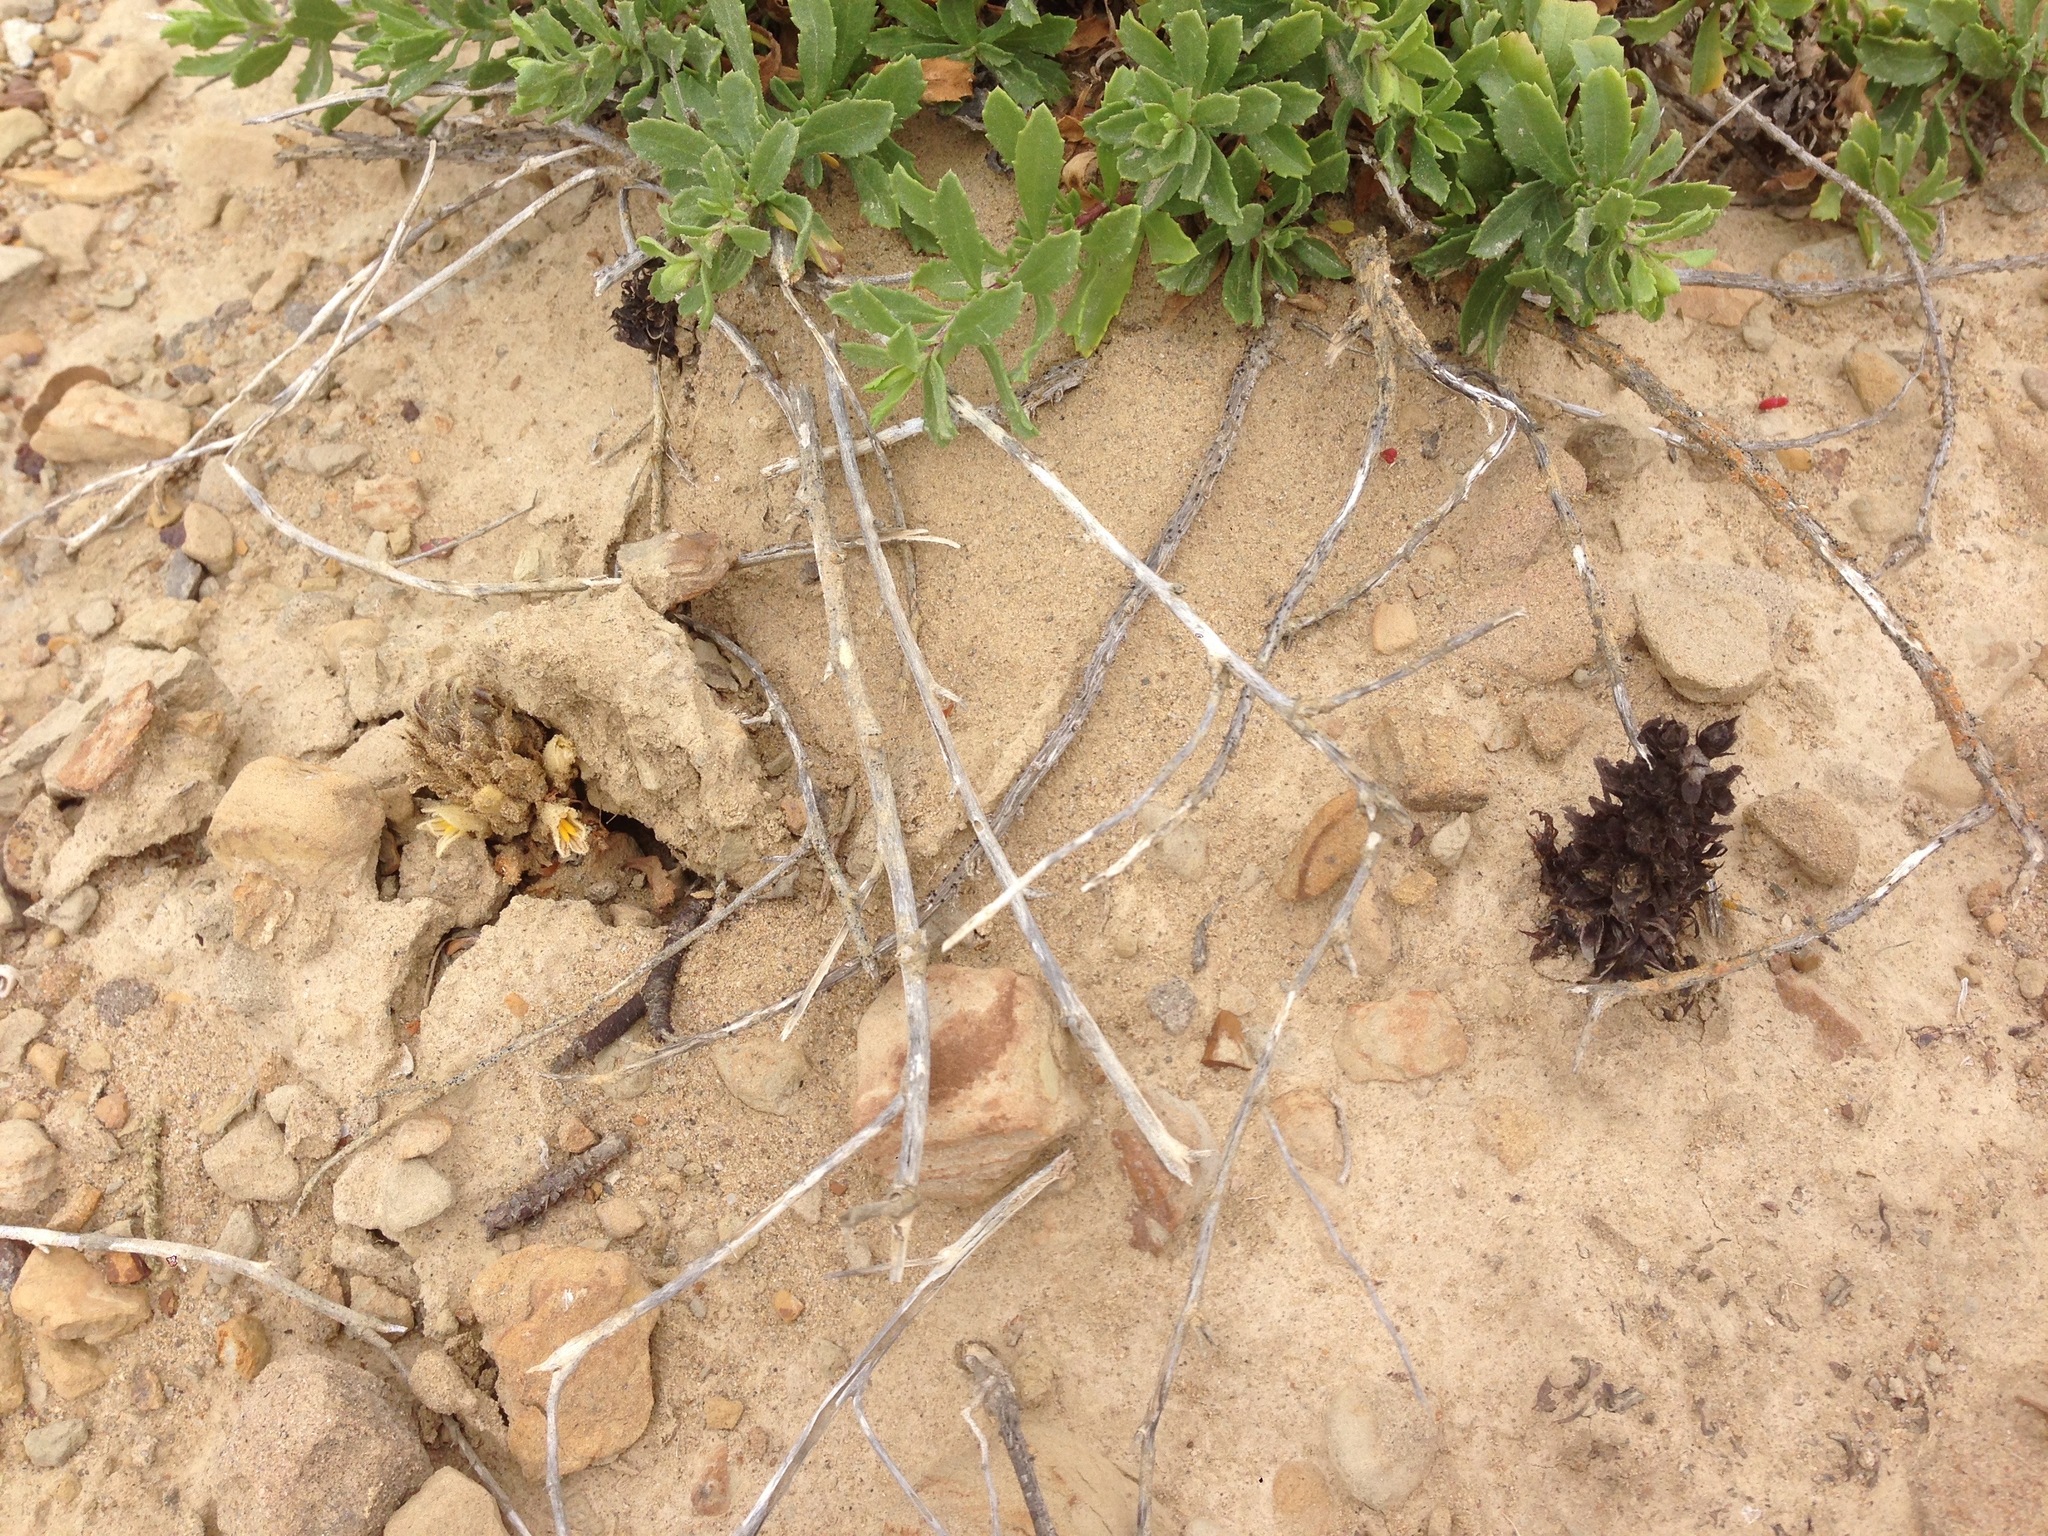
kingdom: Plantae
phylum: Tracheophyta
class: Magnoliopsida
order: Lamiales
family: Orobanchaceae
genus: Aphyllon
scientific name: Aphyllon parishii
